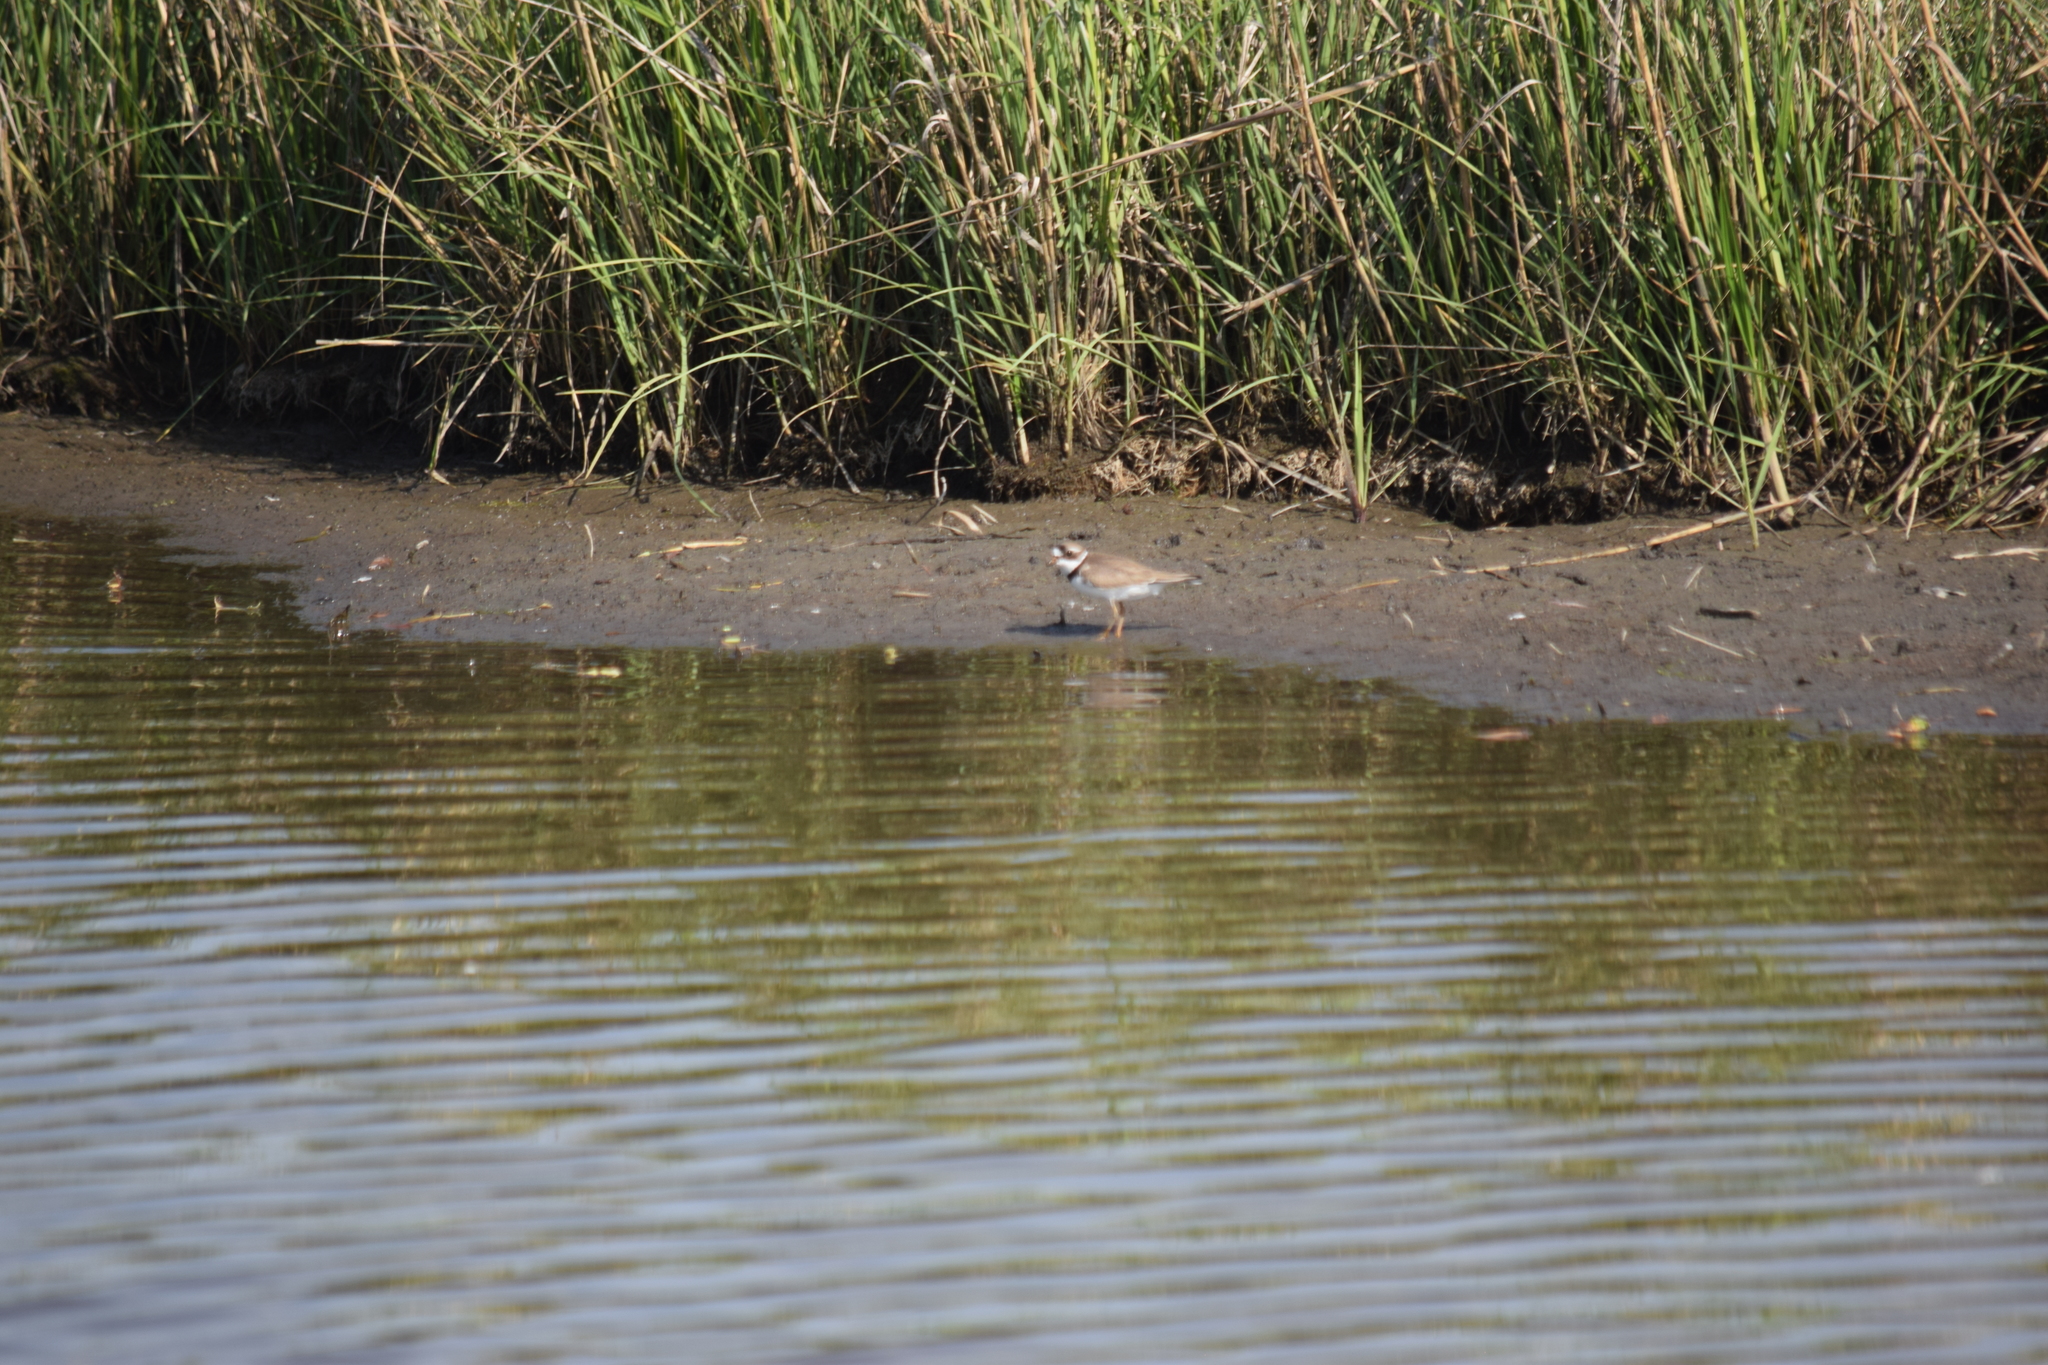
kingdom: Animalia
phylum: Chordata
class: Aves
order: Charadriiformes
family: Charadriidae
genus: Charadrius
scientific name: Charadrius semipalmatus
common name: Semipalmated plover
